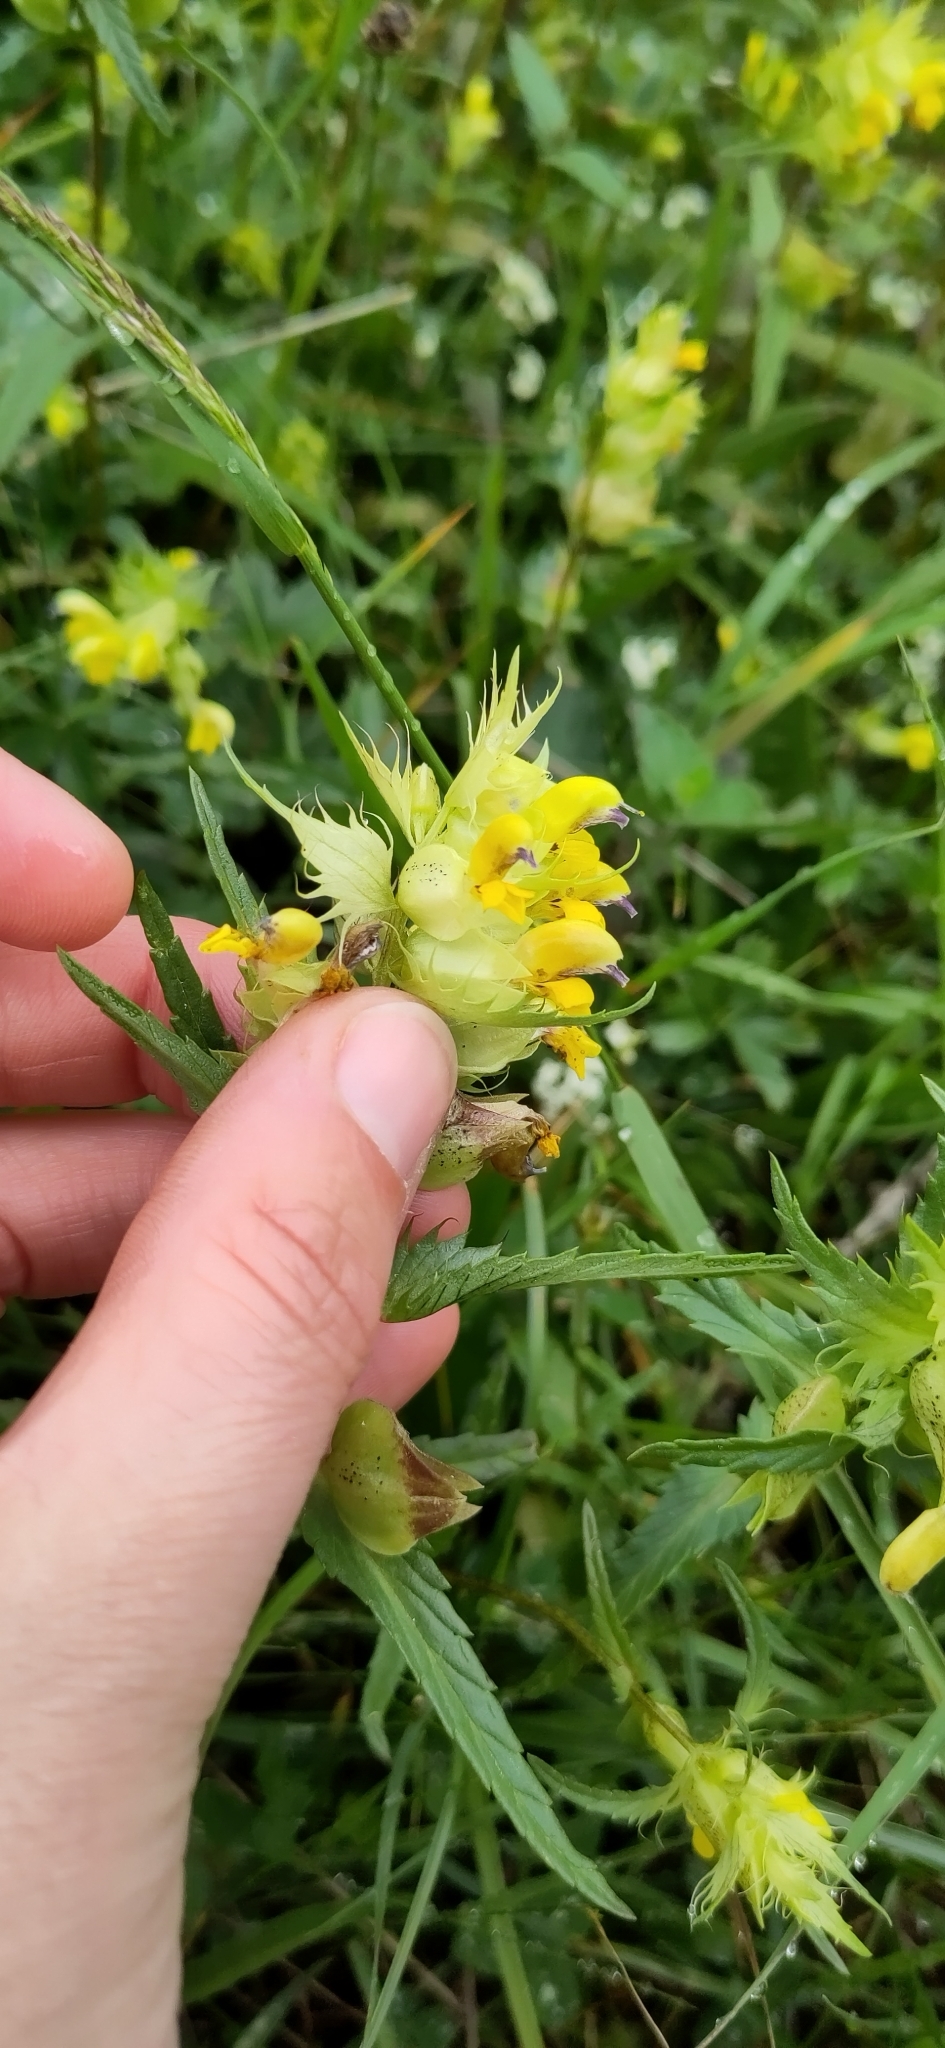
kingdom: Plantae
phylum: Tracheophyta
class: Magnoliopsida
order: Lamiales
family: Orobanchaceae
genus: Rhinanthus
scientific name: Rhinanthus glacialis
